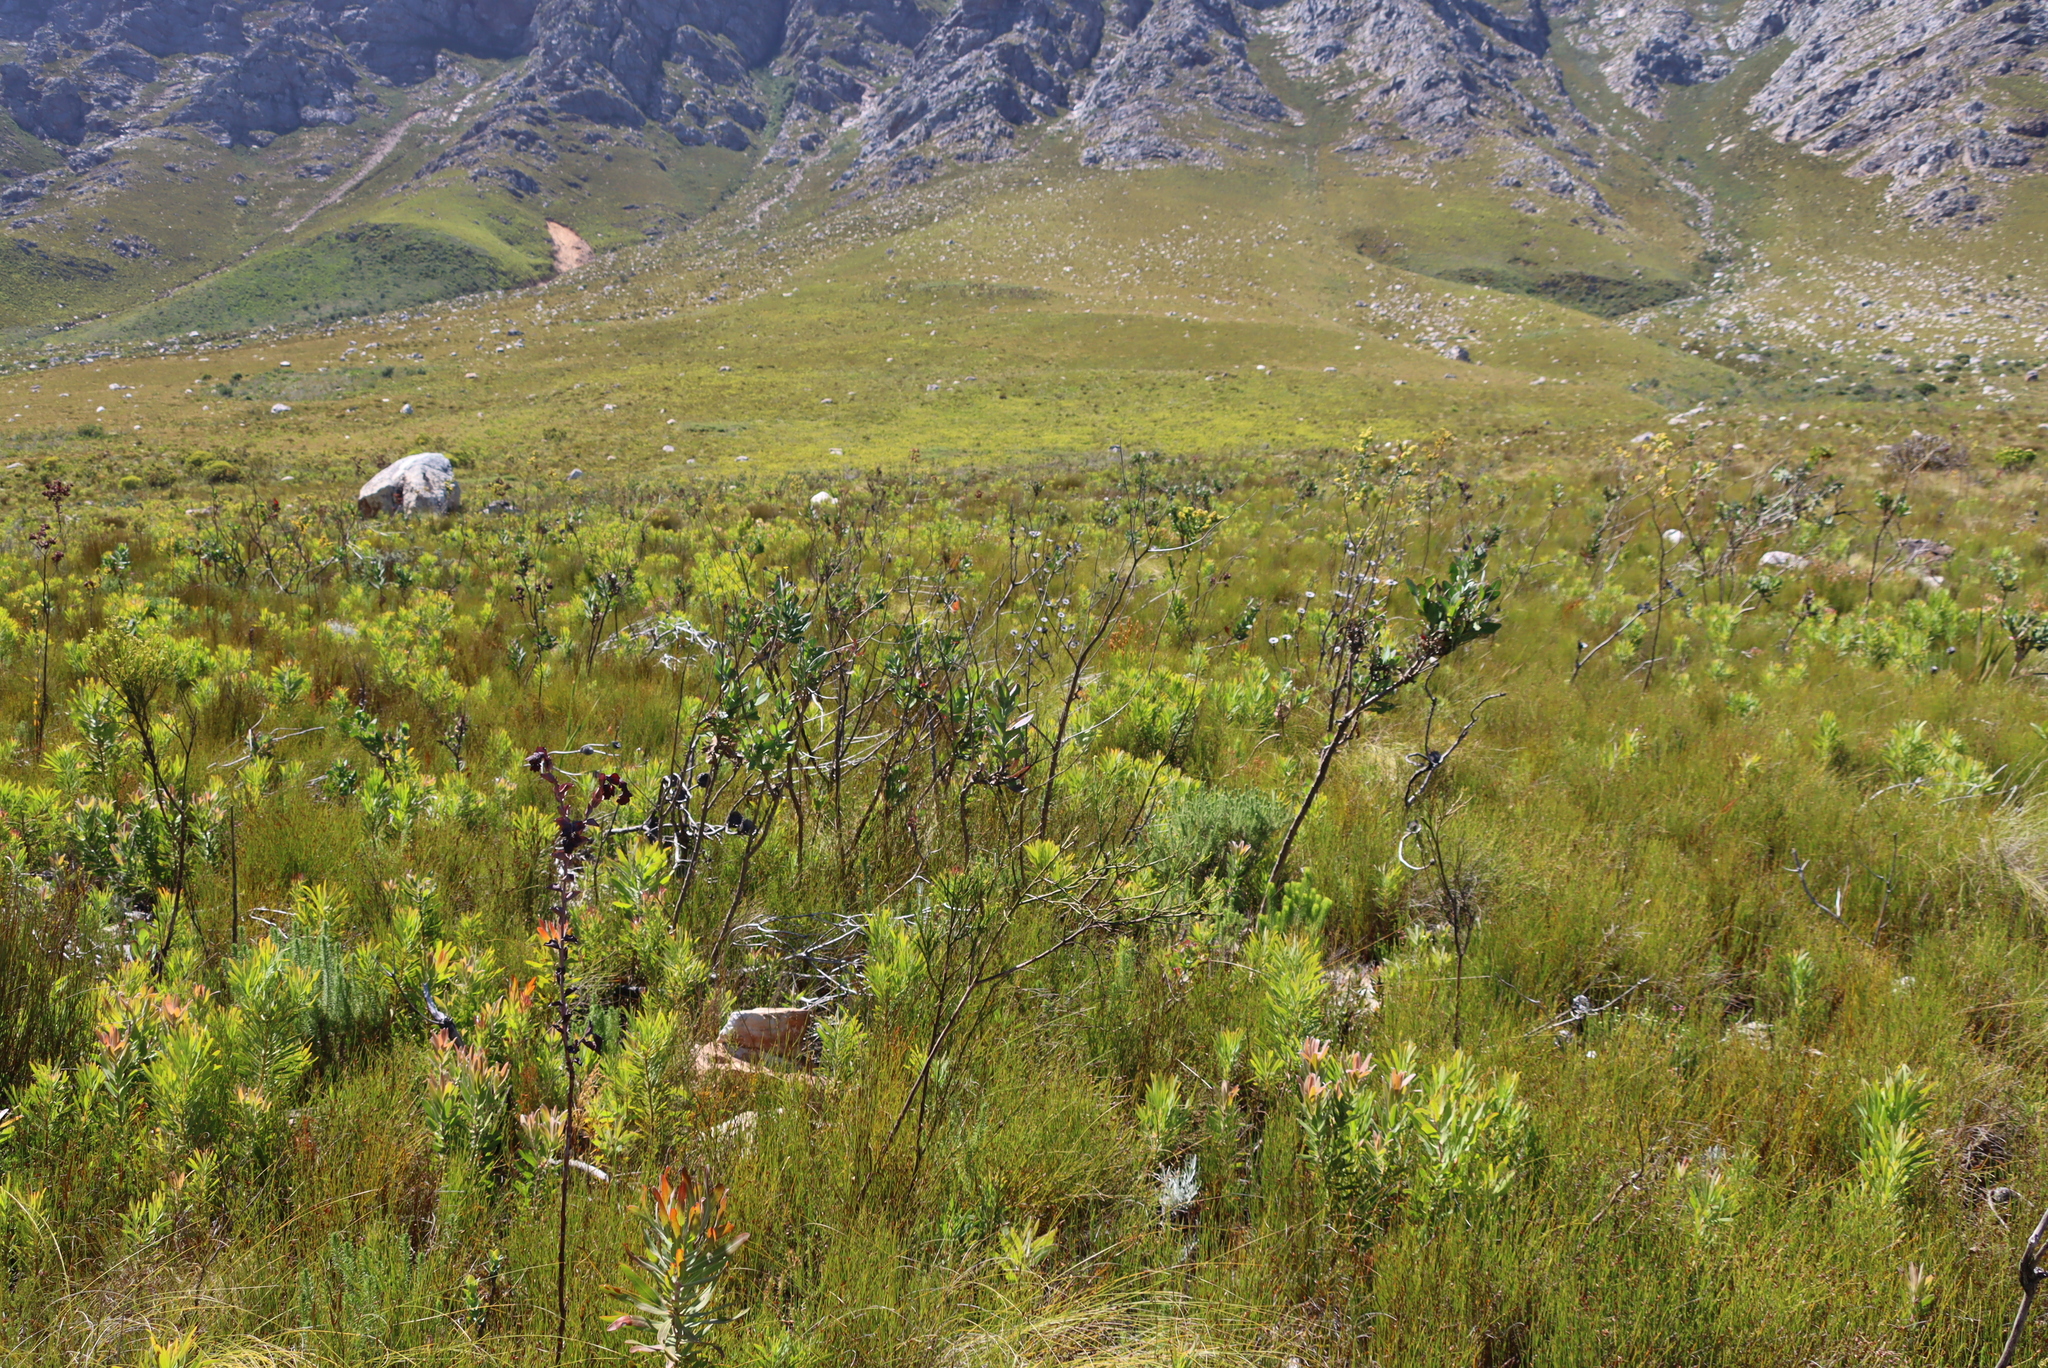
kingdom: Plantae
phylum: Tracheophyta
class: Magnoliopsida
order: Asterales
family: Asteraceae
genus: Othonna
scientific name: Othonna quinquedentata
